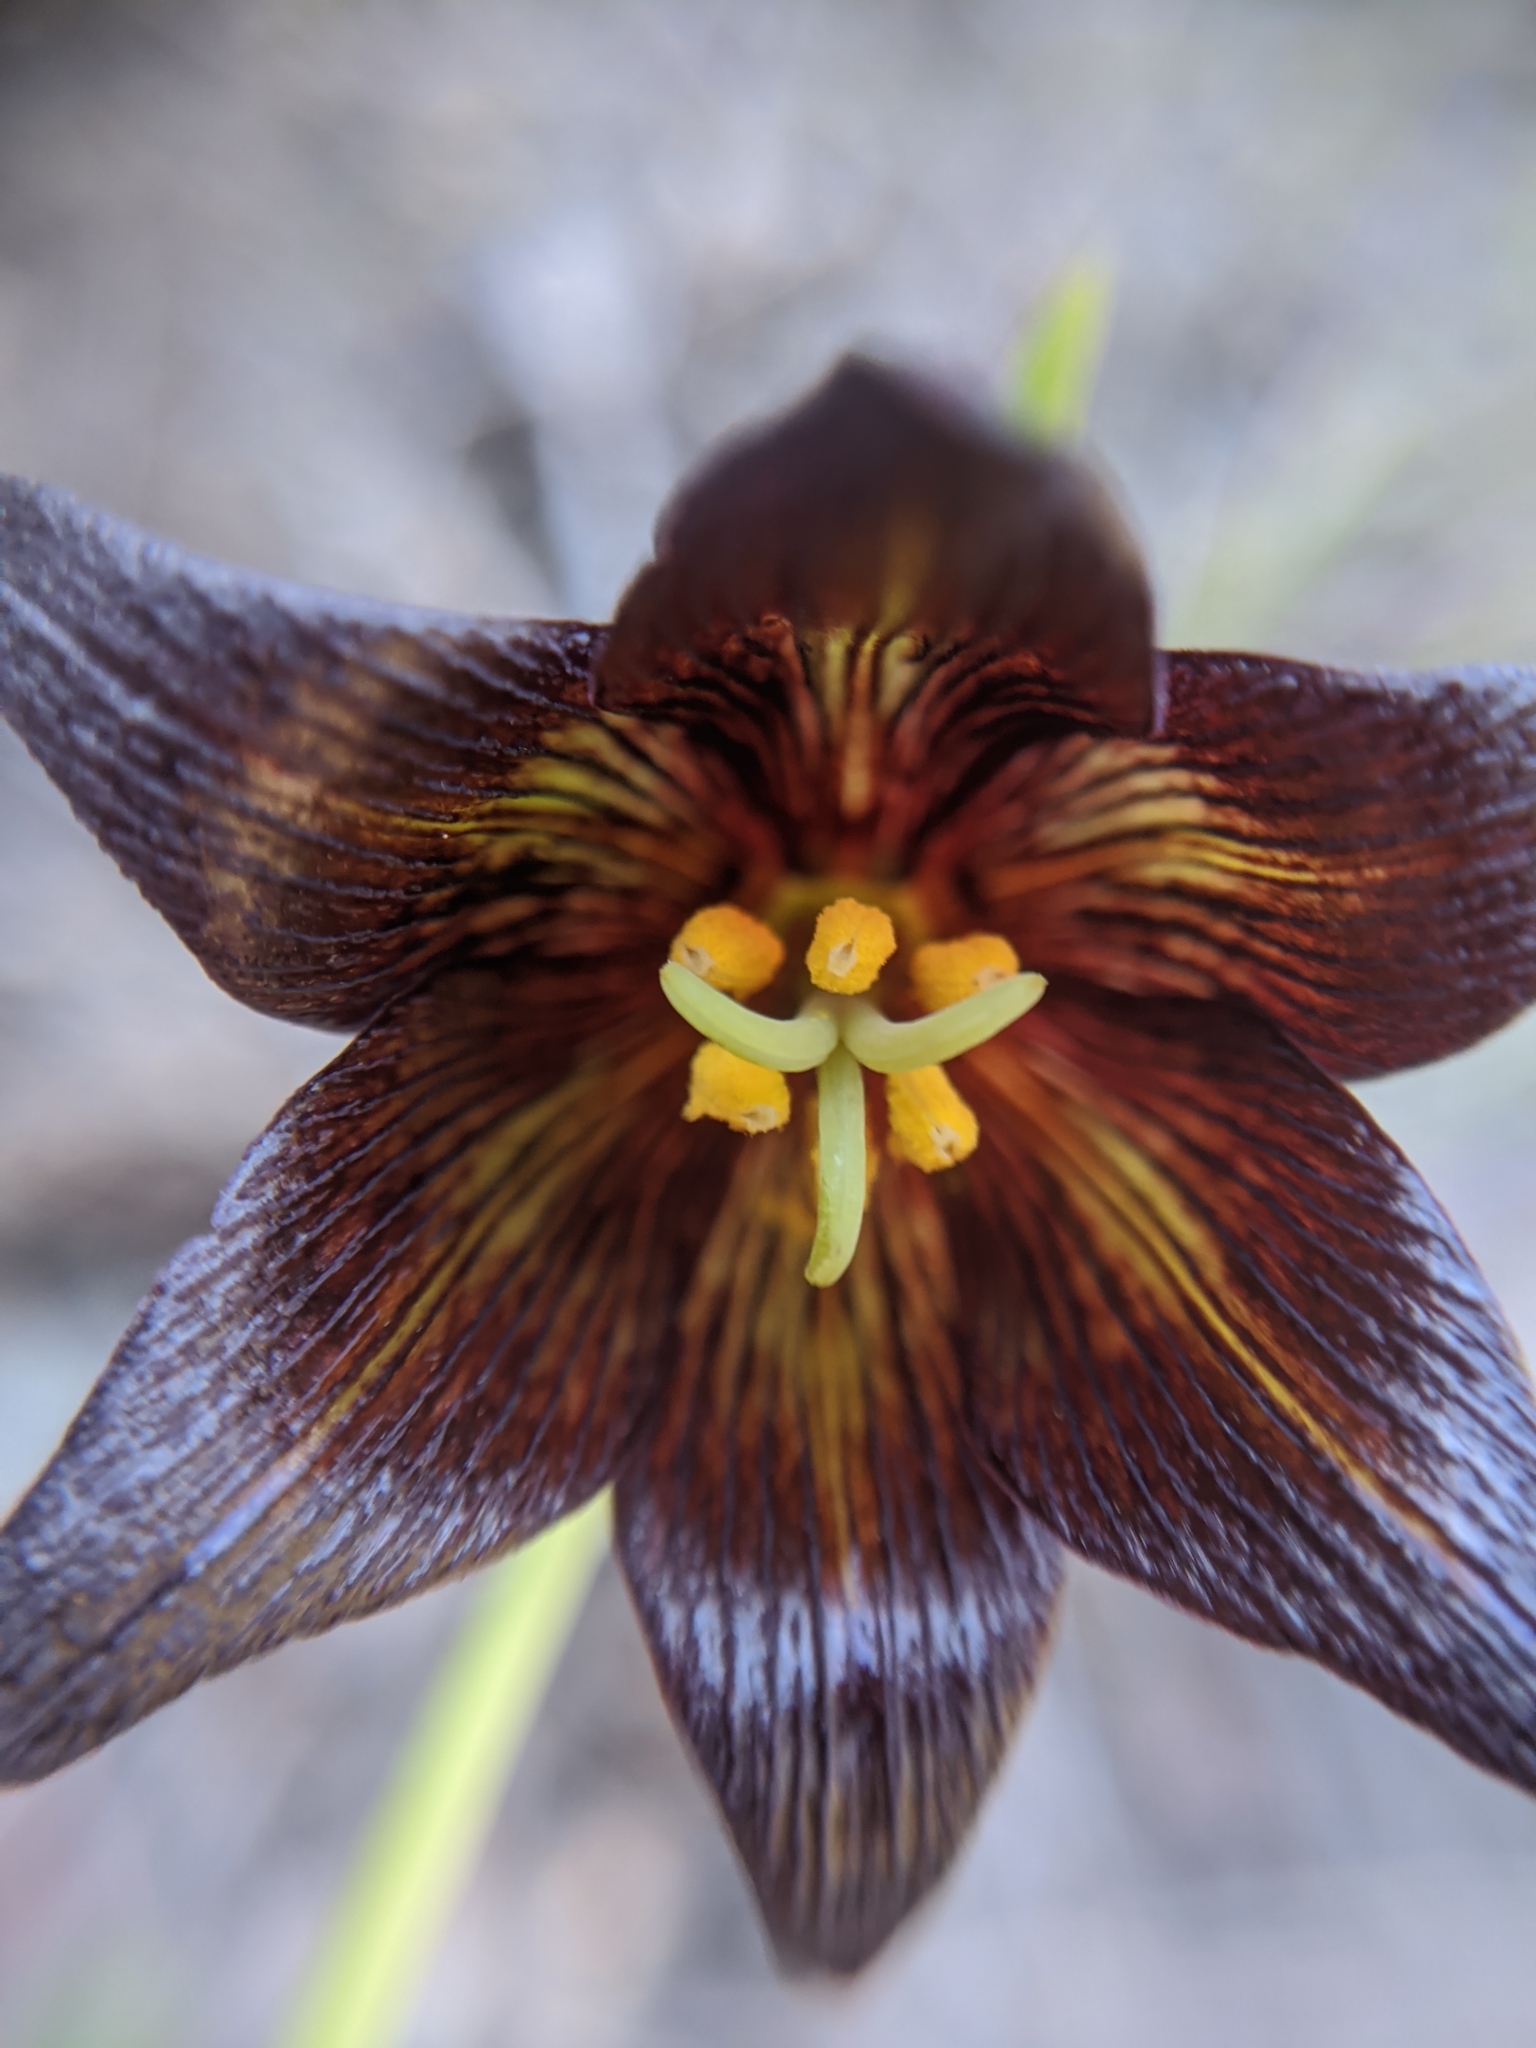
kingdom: Plantae
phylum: Tracheophyta
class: Liliopsida
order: Liliales
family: Liliaceae
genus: Fritillaria
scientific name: Fritillaria biflora
